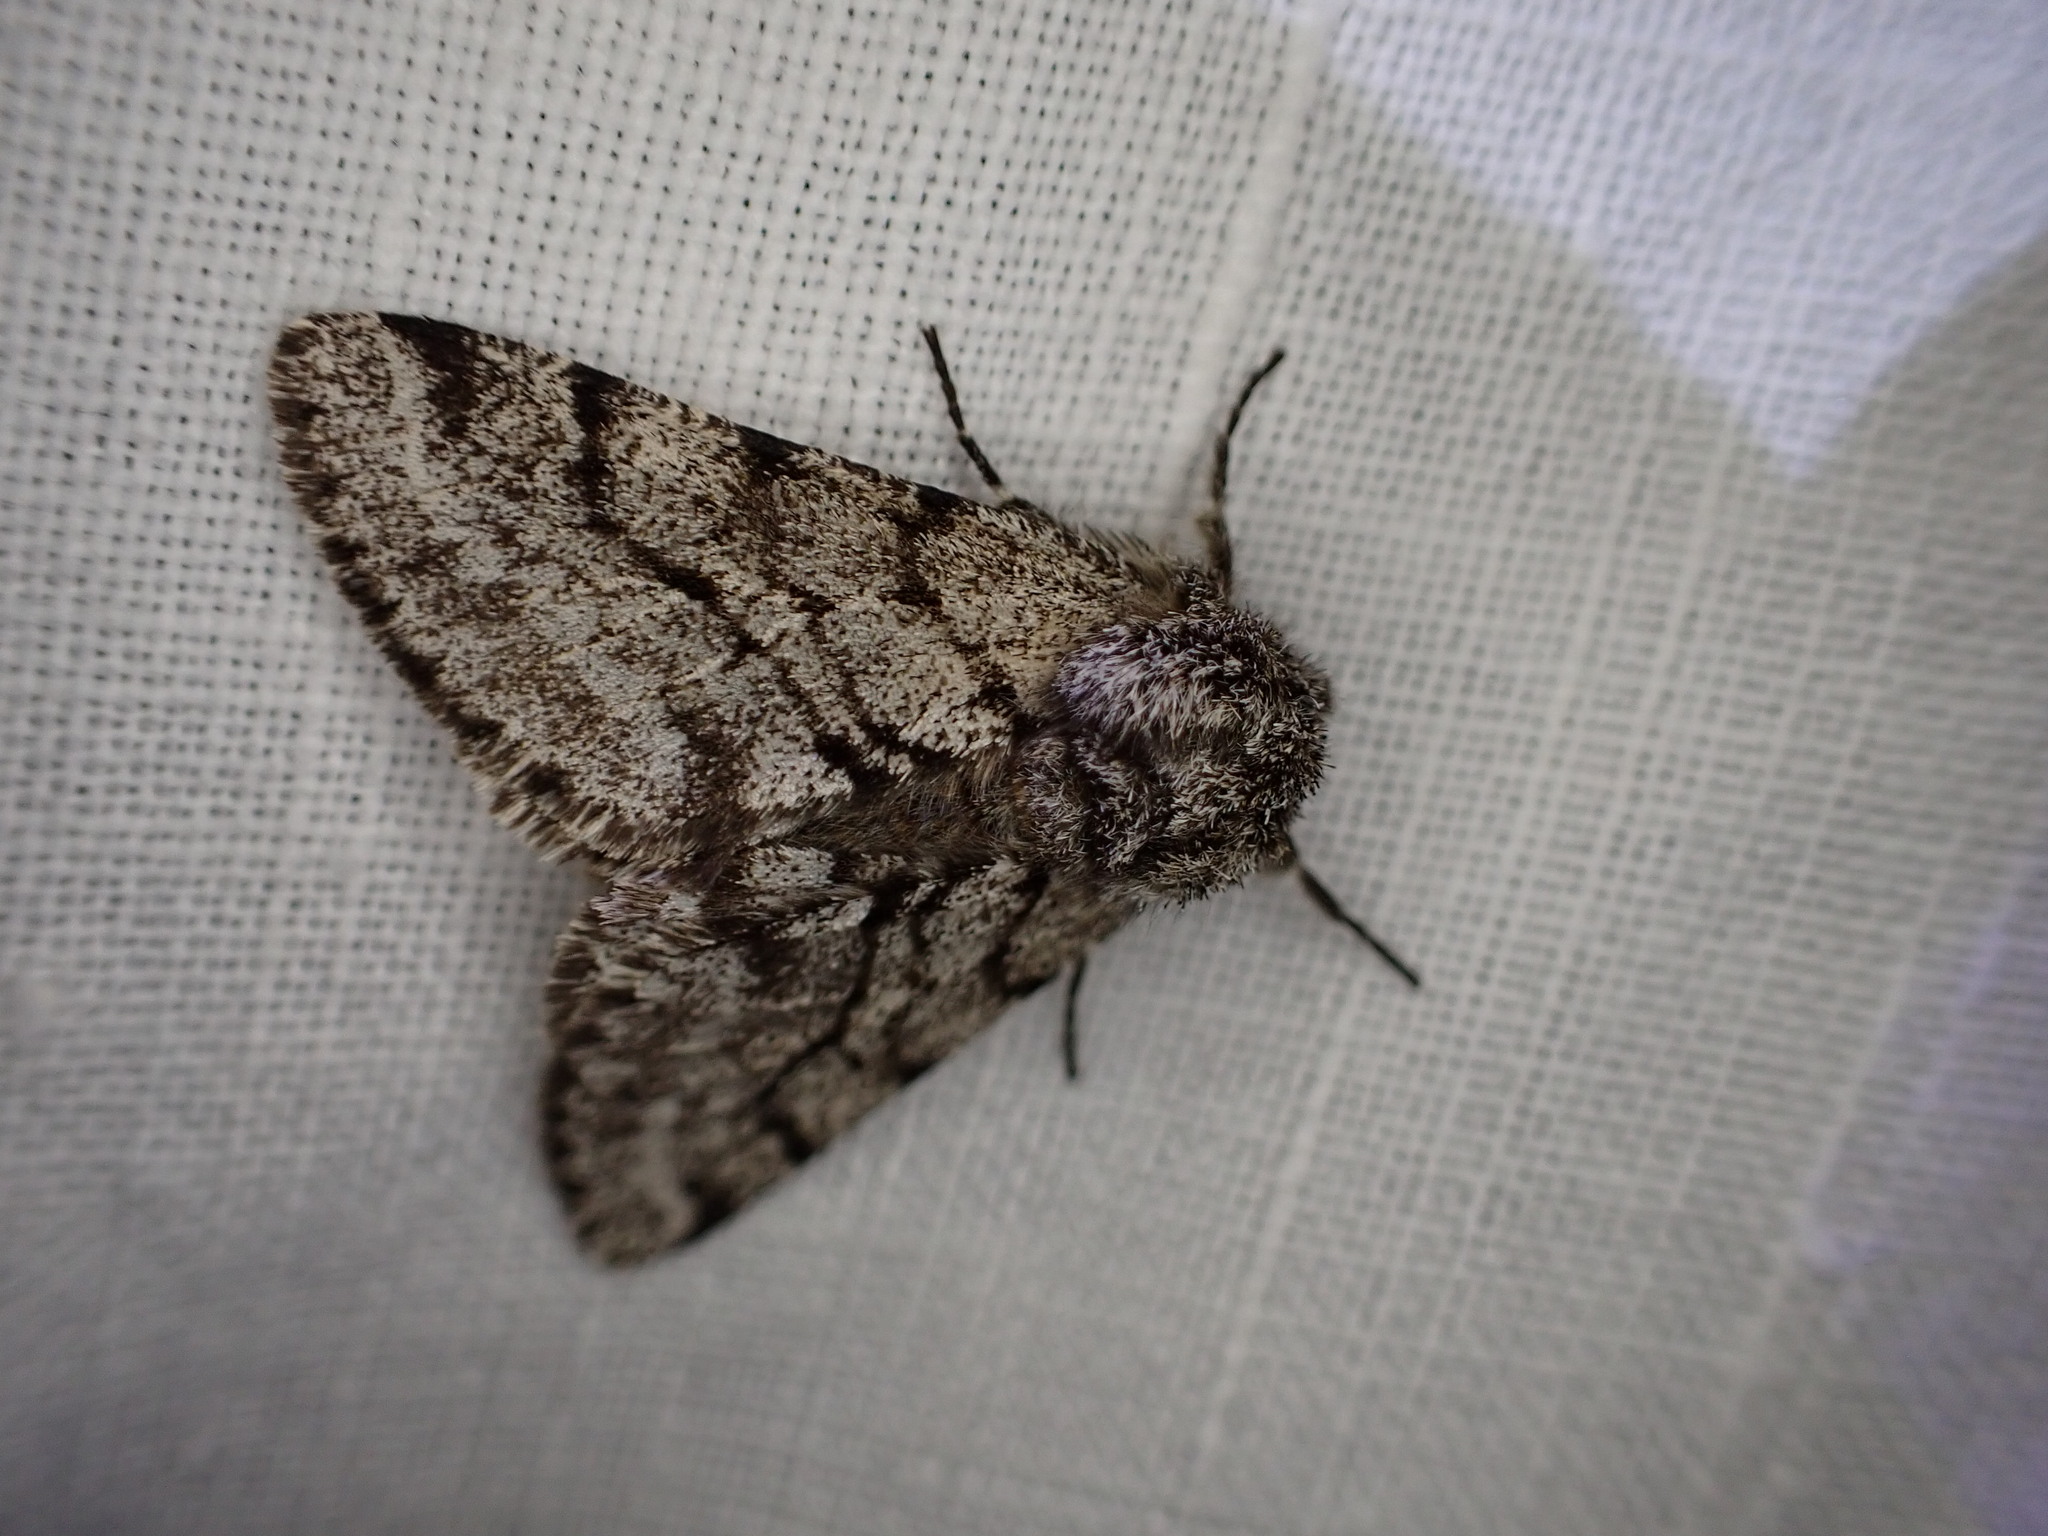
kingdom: Animalia
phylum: Arthropoda
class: Insecta
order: Lepidoptera
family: Geometridae
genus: Lycia
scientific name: Lycia hirtaria
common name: Brindled beauty
